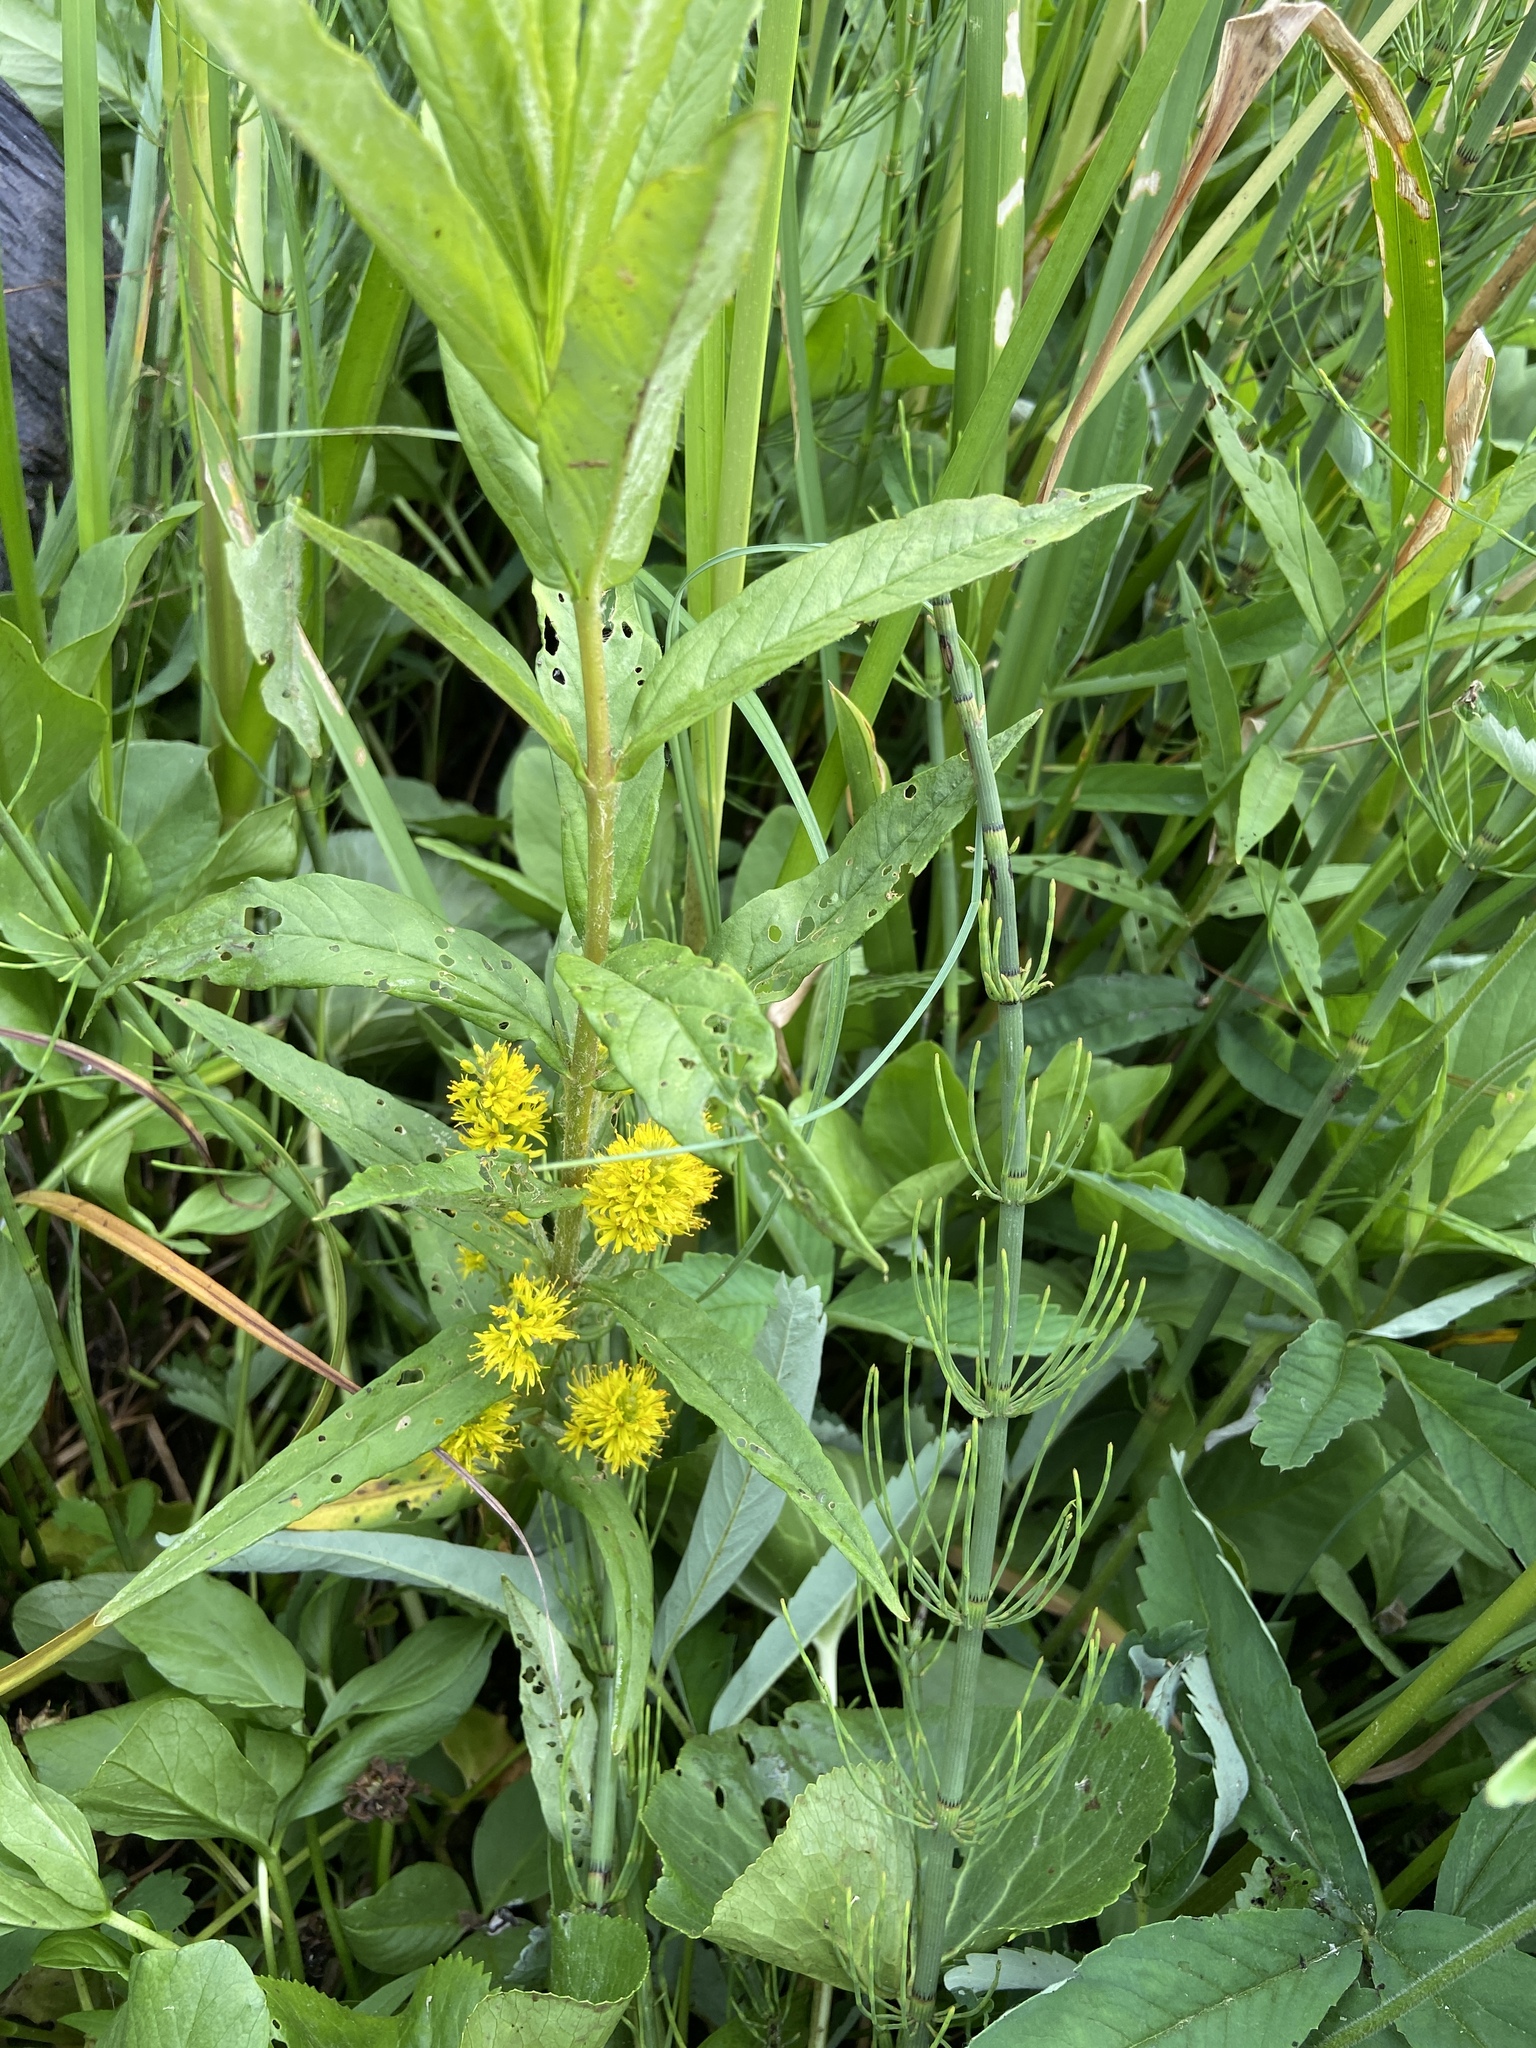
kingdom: Plantae
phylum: Tracheophyta
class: Magnoliopsida
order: Ericales
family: Primulaceae
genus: Lysimachia
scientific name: Lysimachia thyrsiflora
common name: Tufted loosestrife
